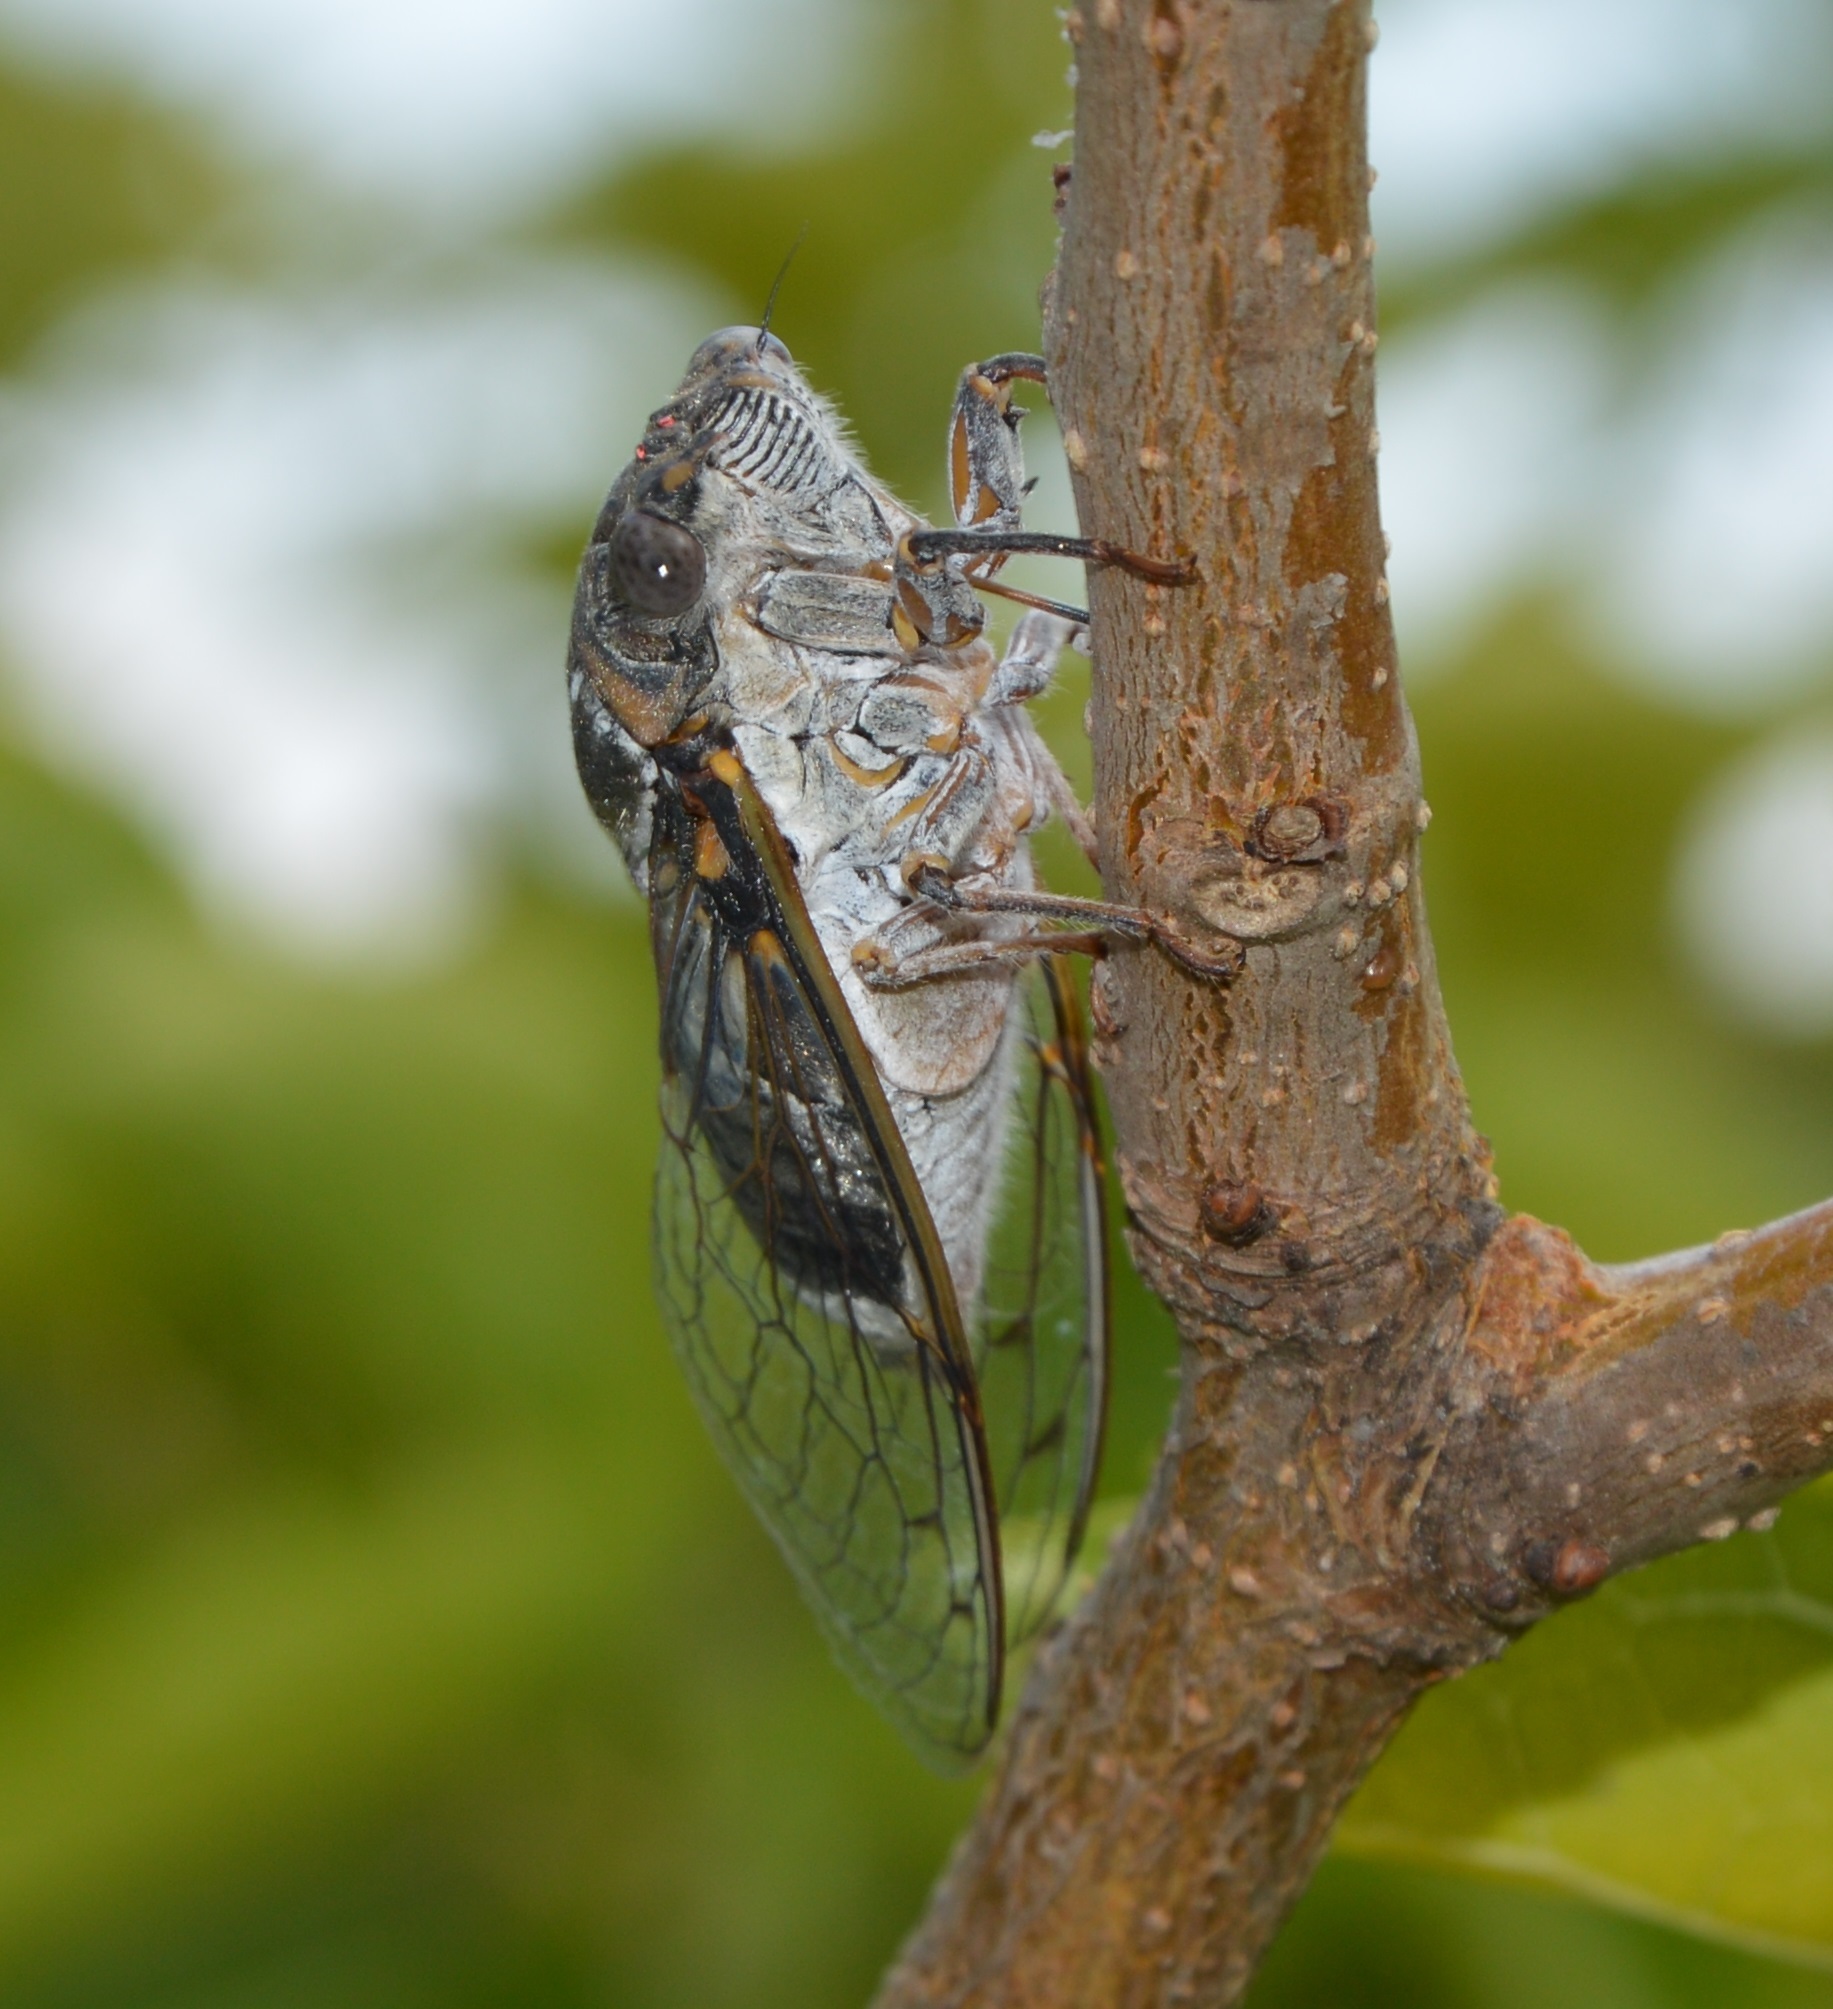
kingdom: Animalia
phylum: Arthropoda
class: Insecta
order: Hemiptera
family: Cicadidae
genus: Lyristes
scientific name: Lyristes plebejus
